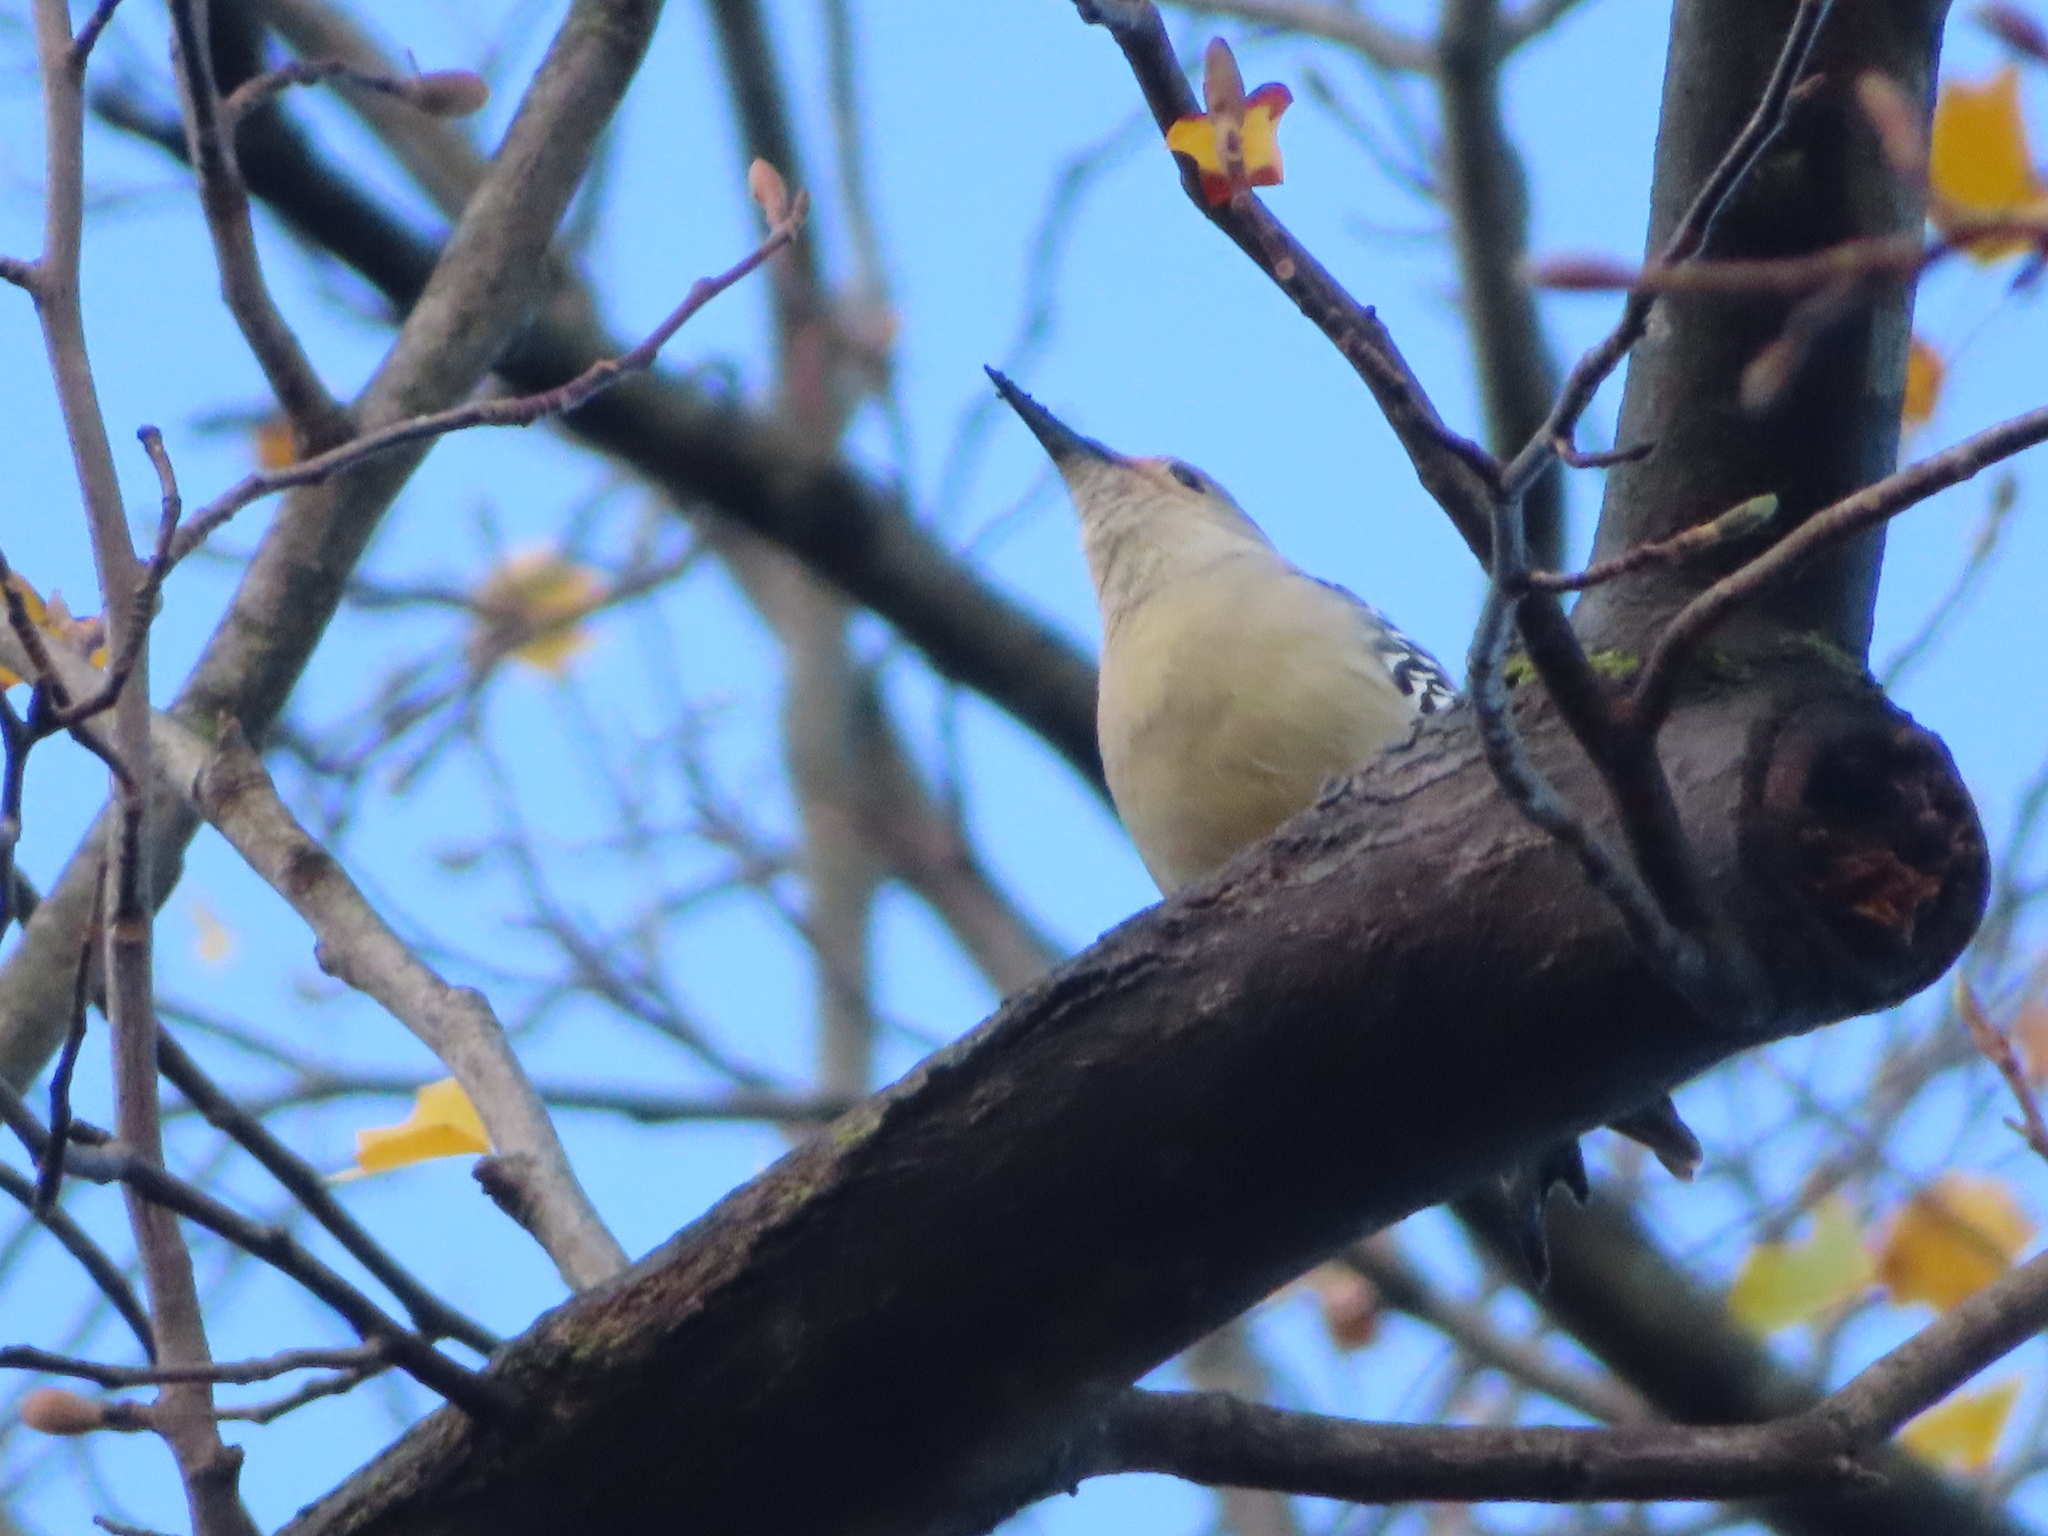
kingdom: Animalia
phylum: Chordata
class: Aves
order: Piciformes
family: Picidae
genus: Melanerpes
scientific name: Melanerpes carolinus
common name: Red-bellied woodpecker
